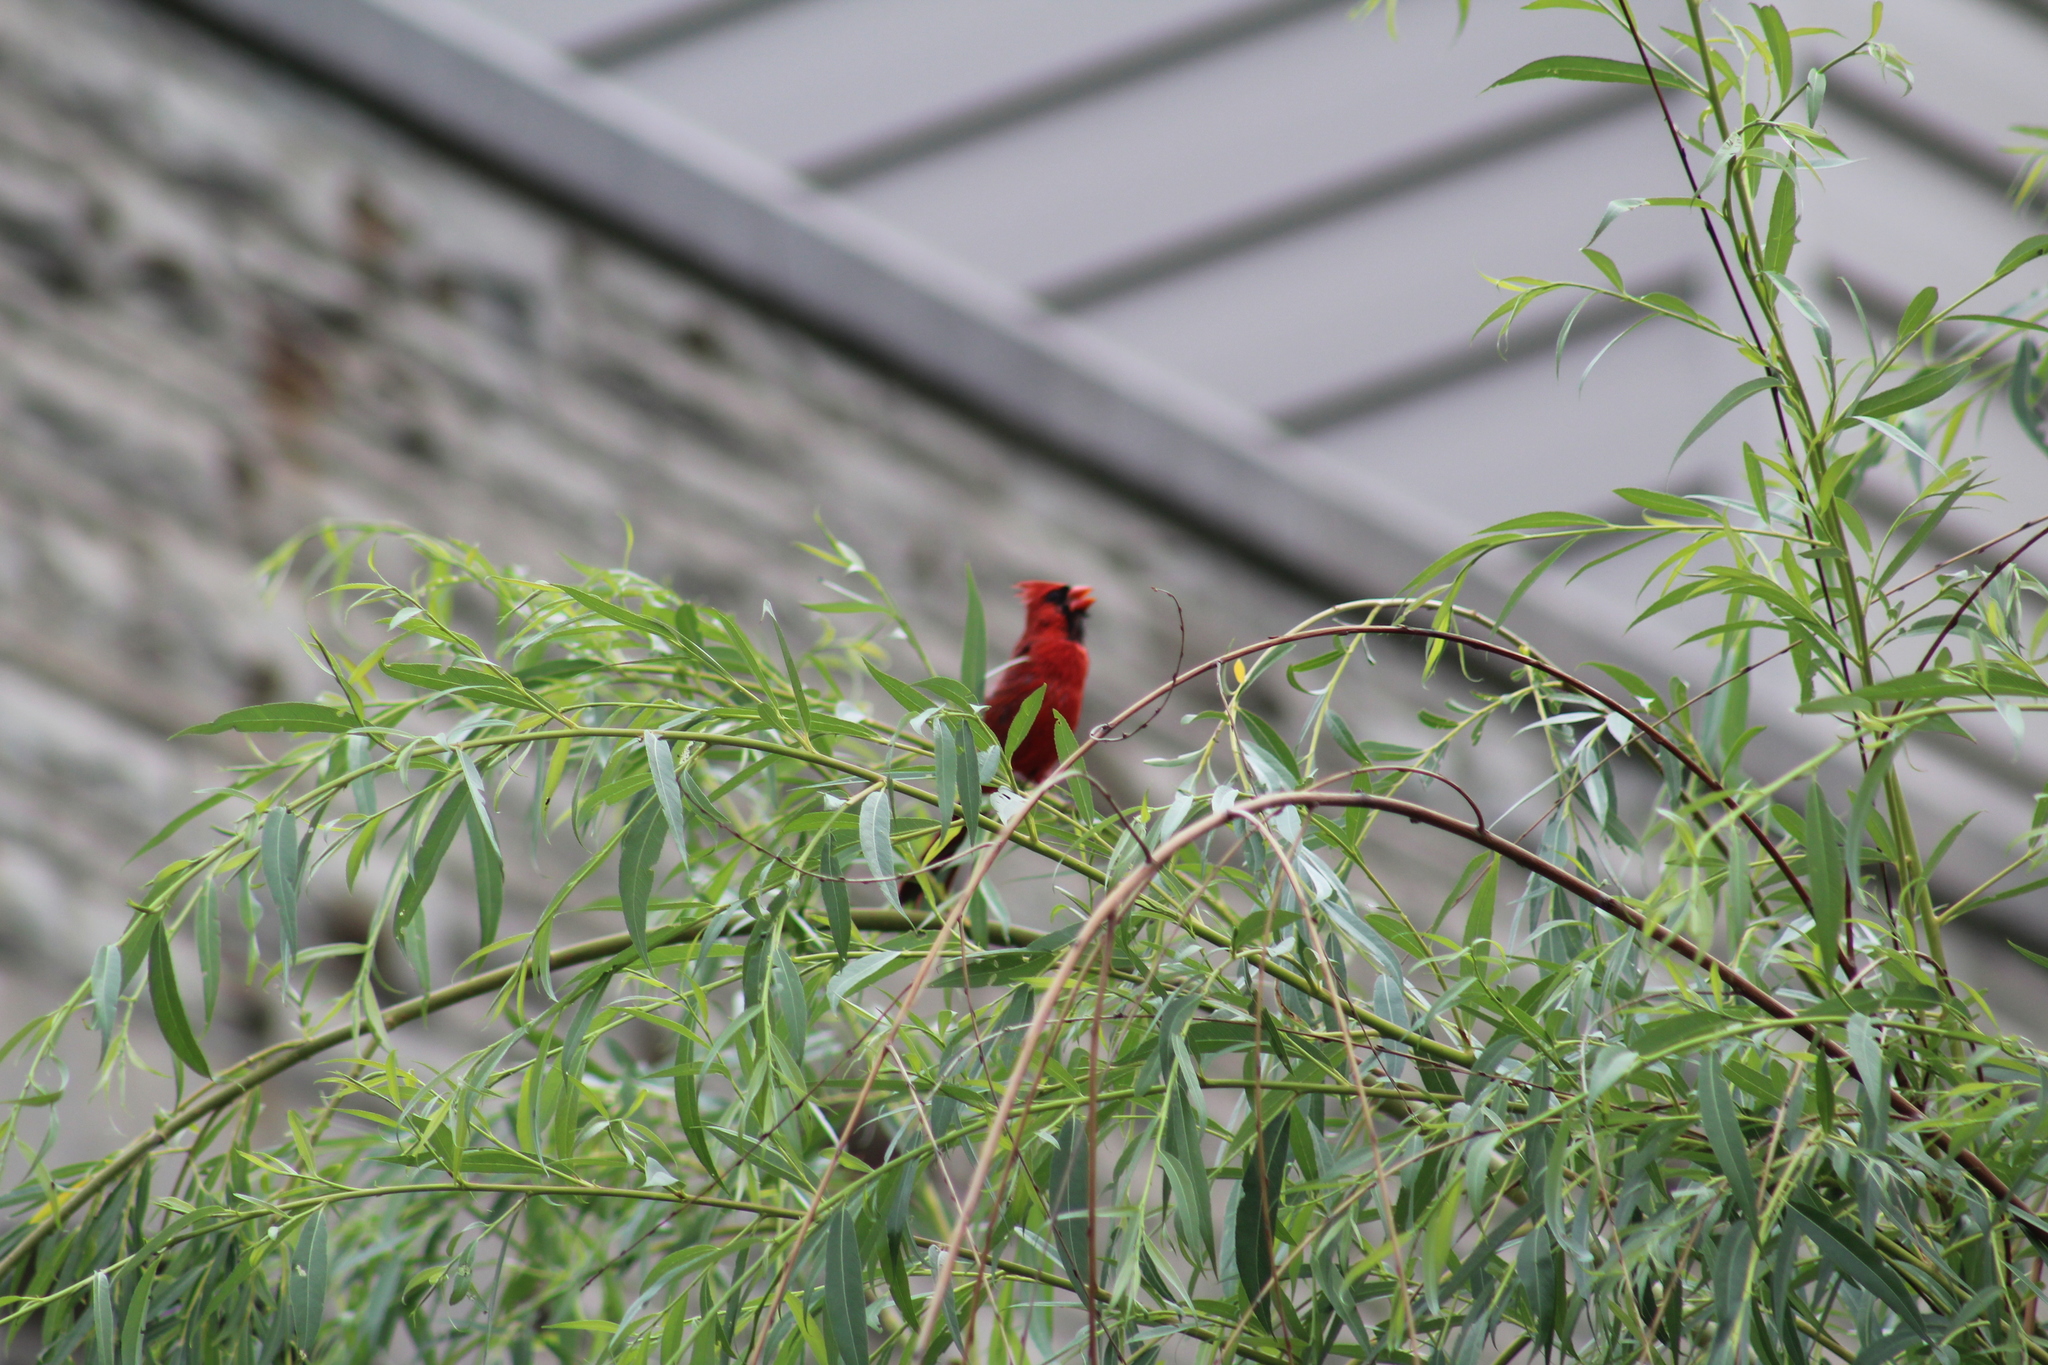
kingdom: Animalia
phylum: Chordata
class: Aves
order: Passeriformes
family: Cardinalidae
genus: Cardinalis
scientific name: Cardinalis cardinalis
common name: Northern cardinal
